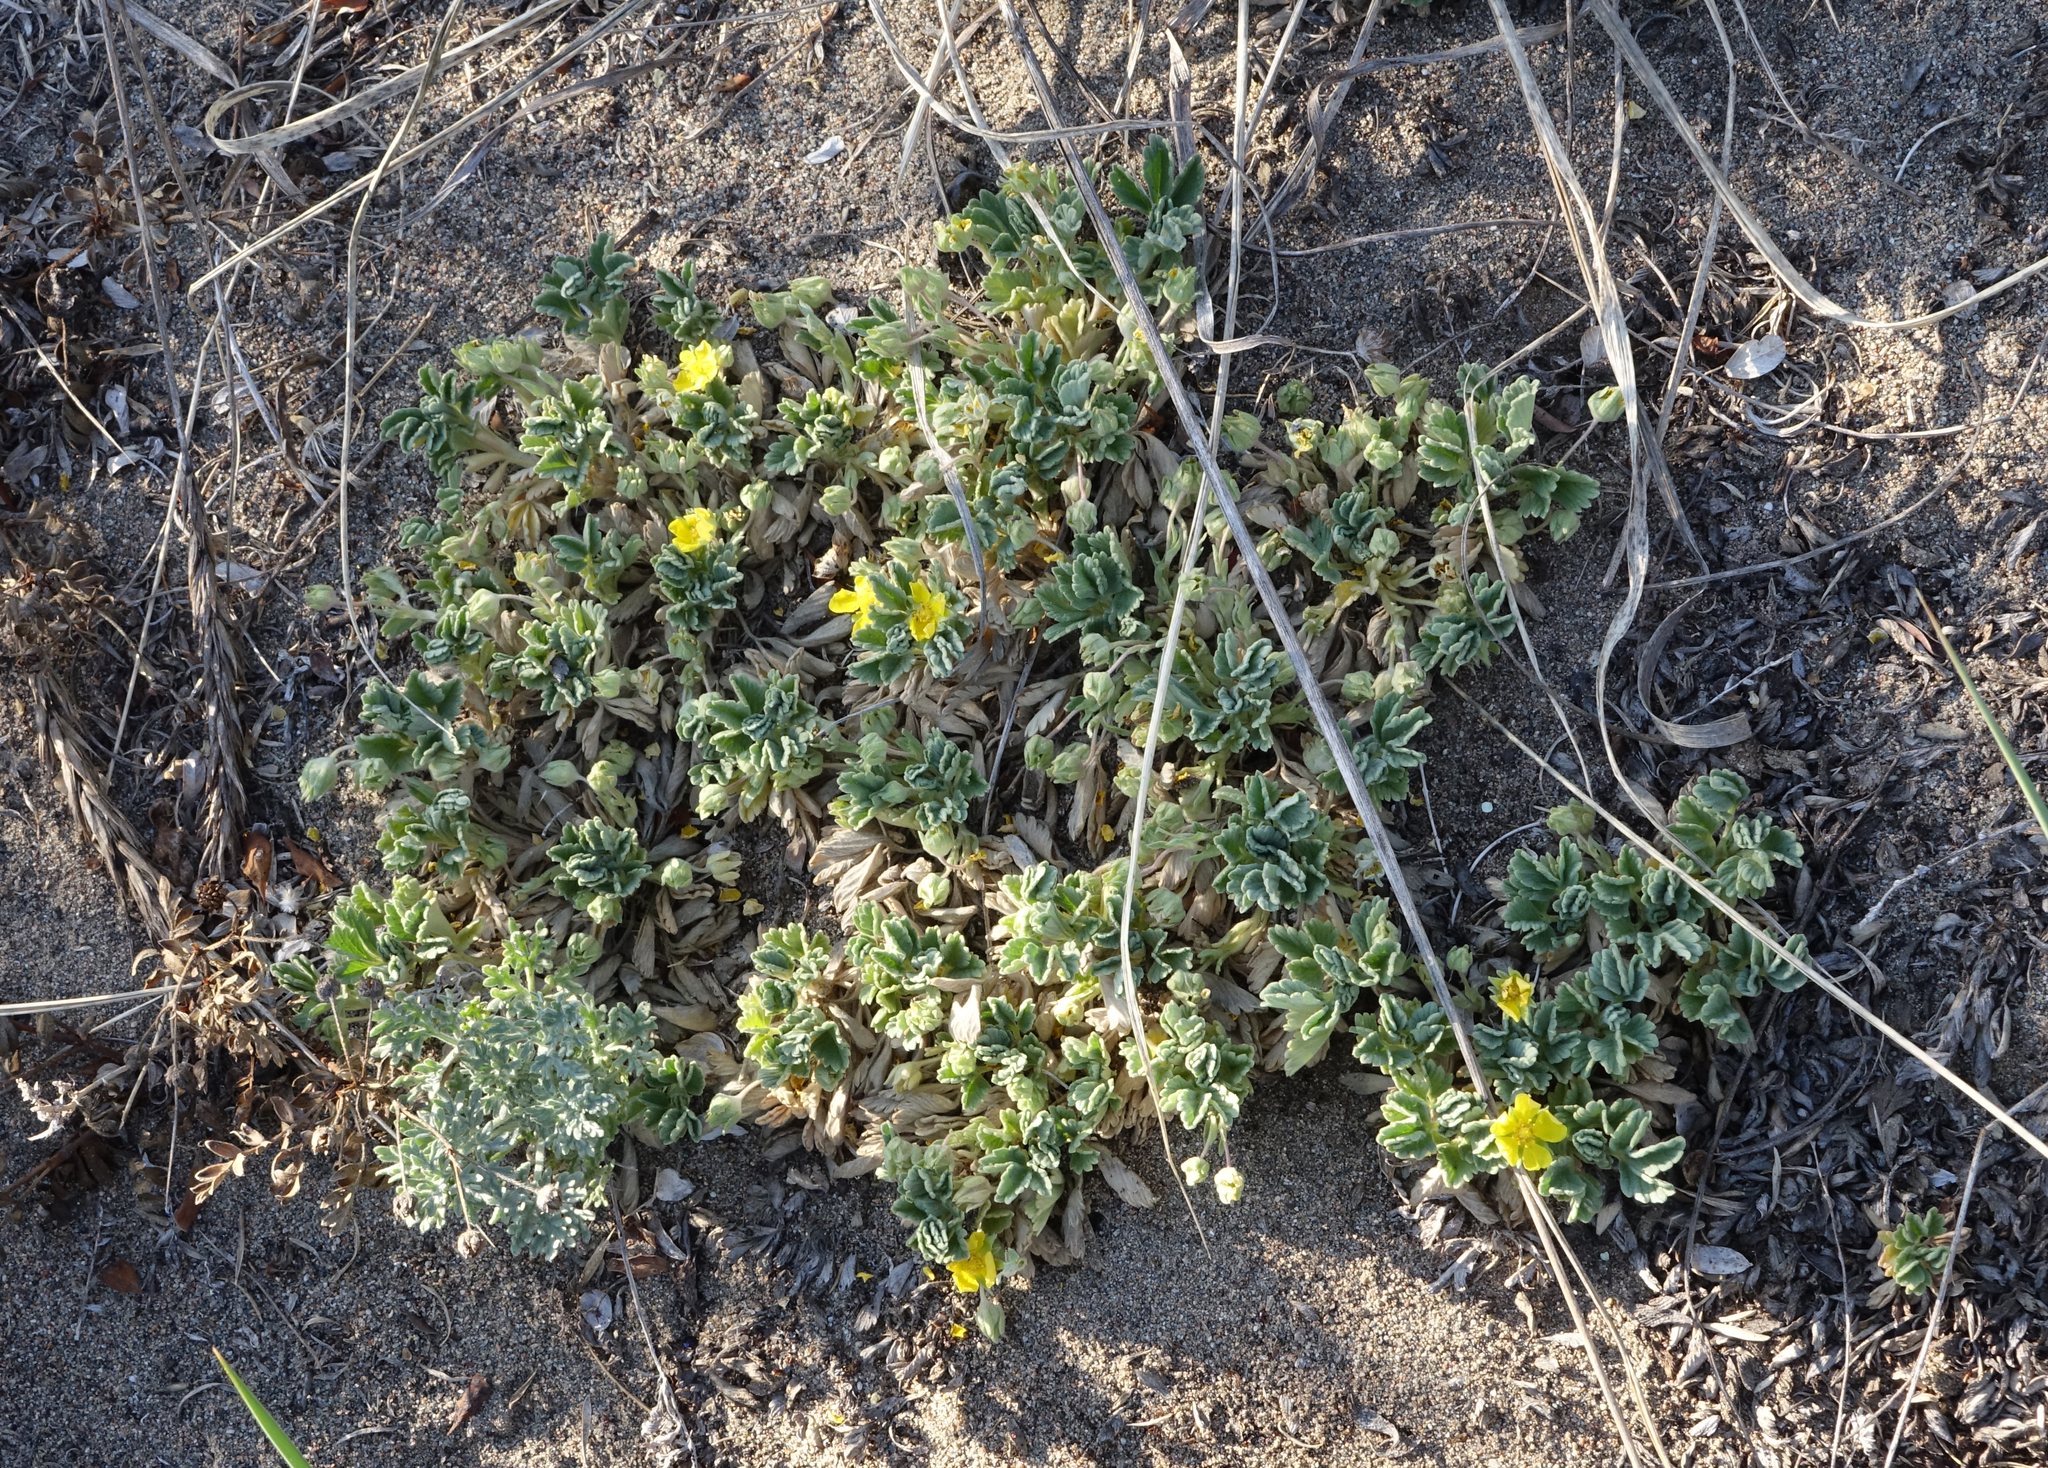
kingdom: Plantae
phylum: Tracheophyta
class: Magnoliopsida
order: Rosales
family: Rosaceae
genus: Potentilla
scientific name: Potentilla acaulis
